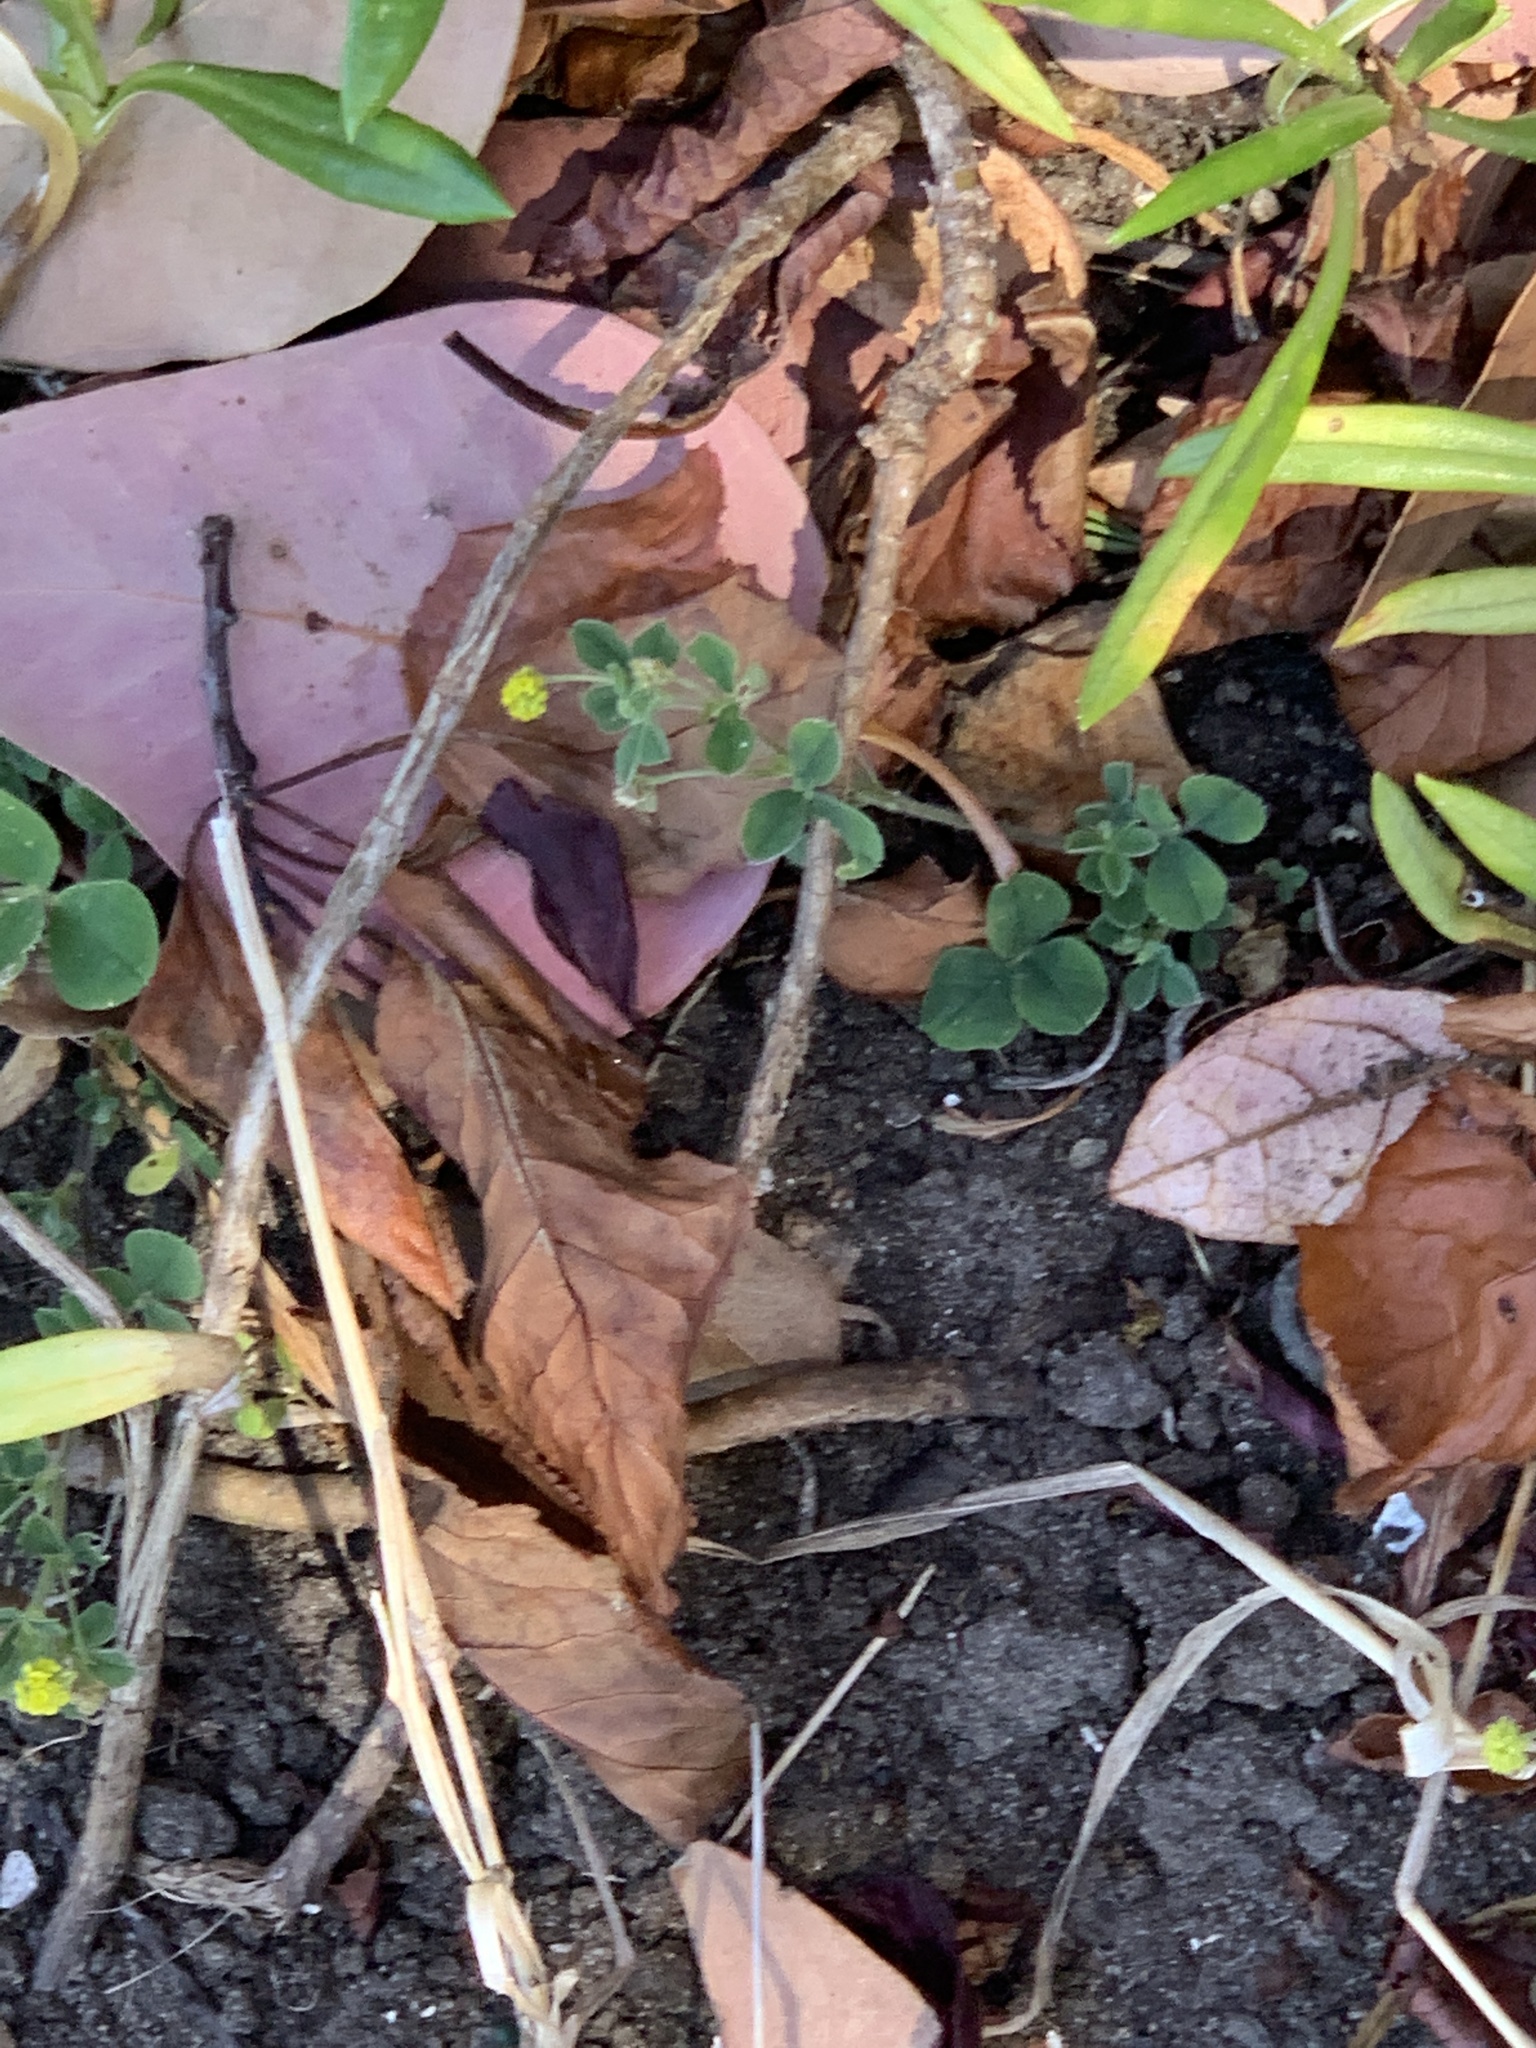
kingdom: Plantae
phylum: Tracheophyta
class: Magnoliopsida
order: Fabales
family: Fabaceae
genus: Medicago
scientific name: Medicago lupulina
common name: Black medick
